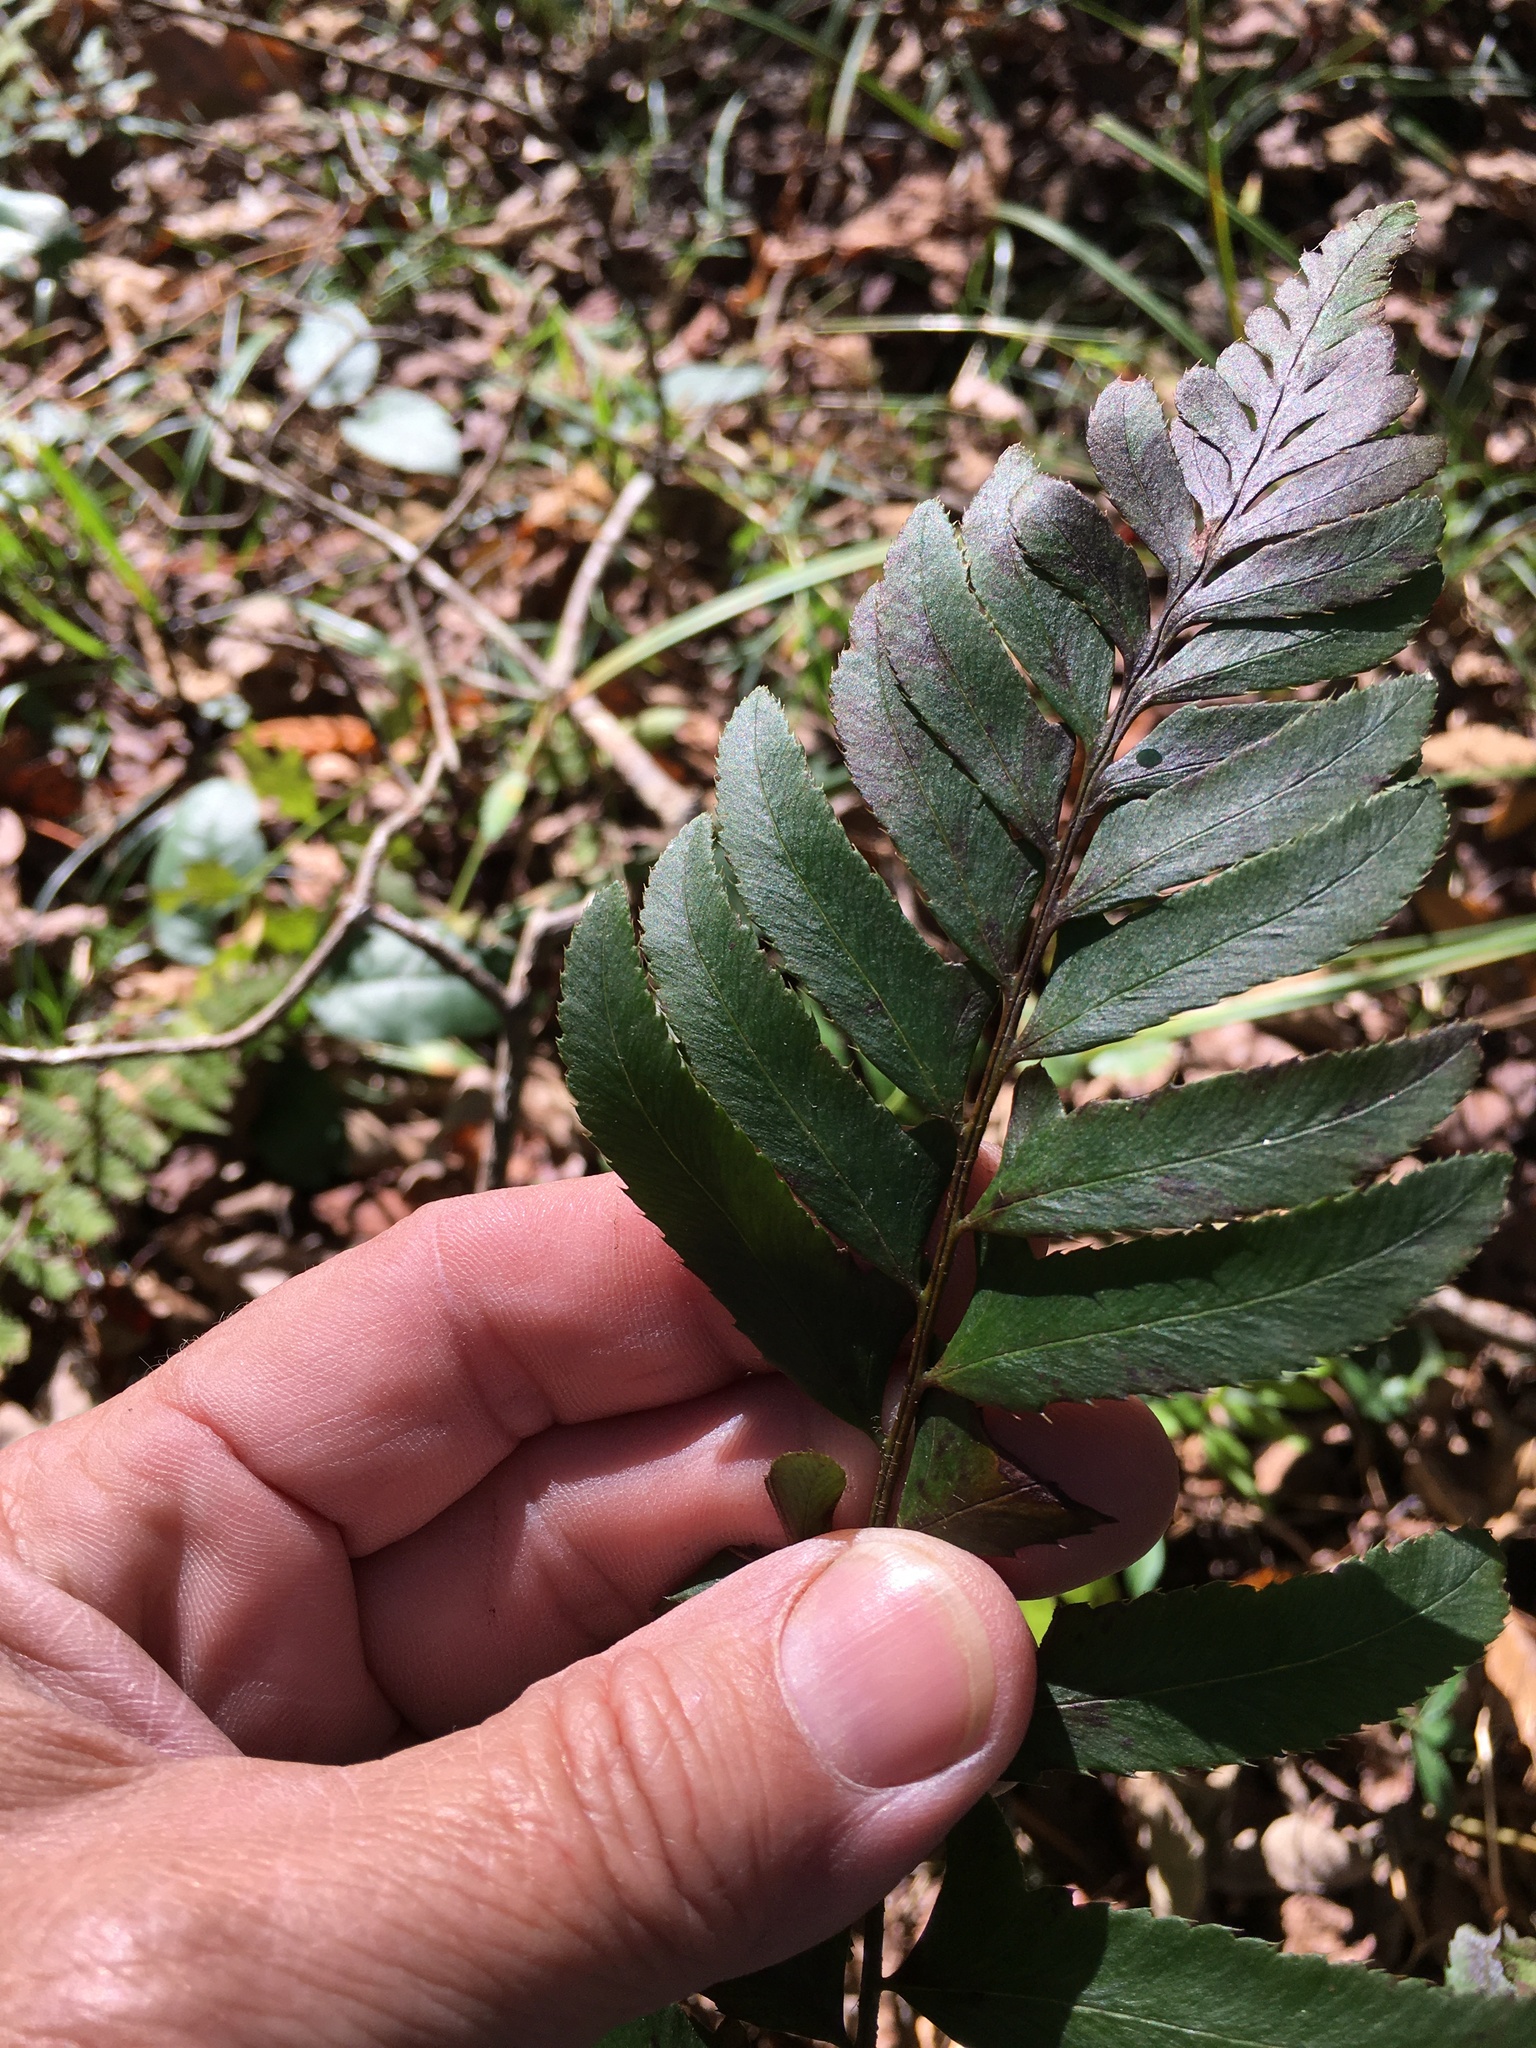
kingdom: Plantae
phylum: Tracheophyta
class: Polypodiopsida
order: Polypodiales
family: Dryopteridaceae
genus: Polystichum
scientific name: Polystichum acrostichoides
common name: Christmas fern
